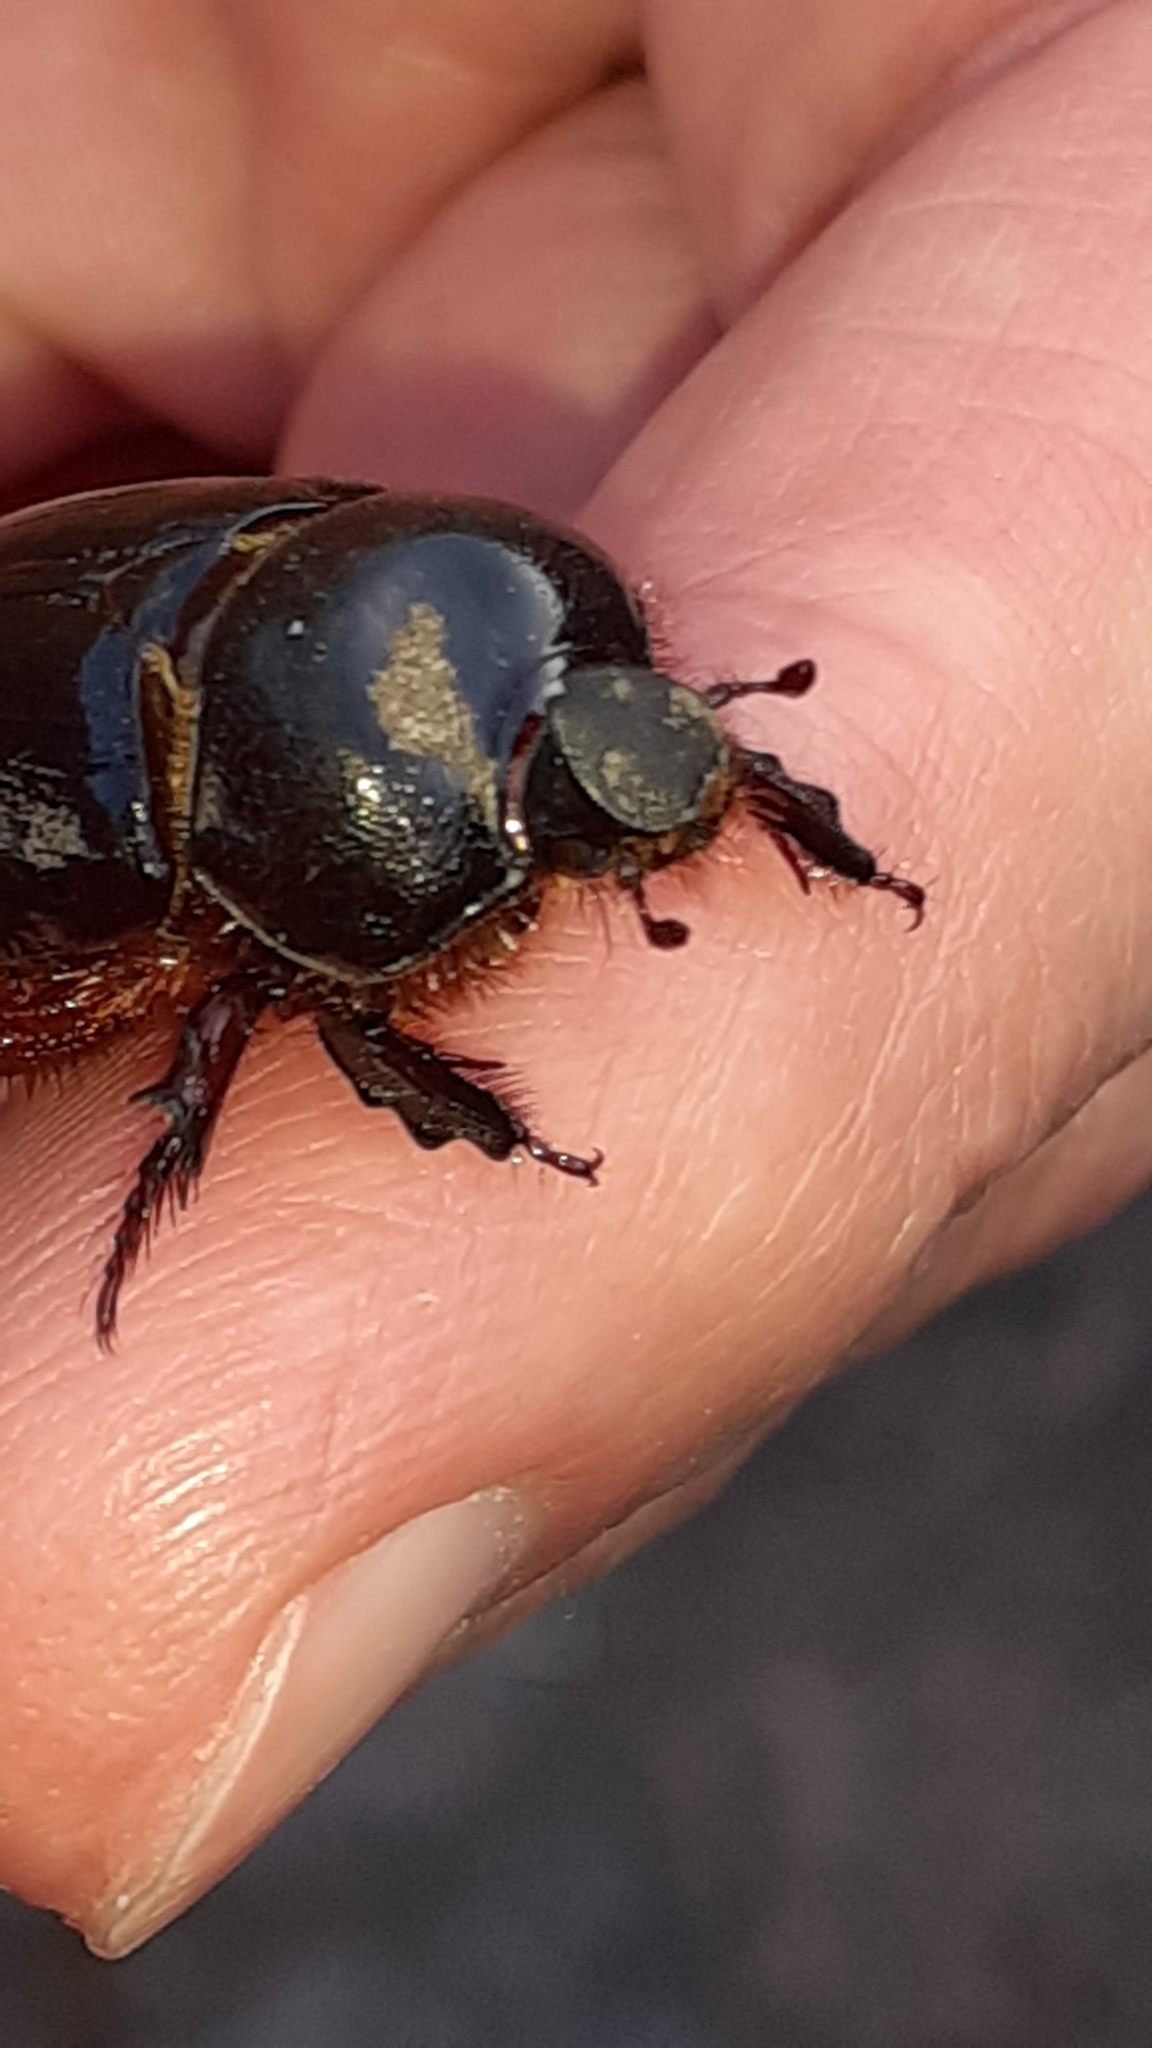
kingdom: Animalia
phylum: Arthropoda
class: Insecta
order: Coleoptera
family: Scarabaeidae
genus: Temnorhynchus
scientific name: Temnorhynchus retusus
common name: Plate-faced beetle
